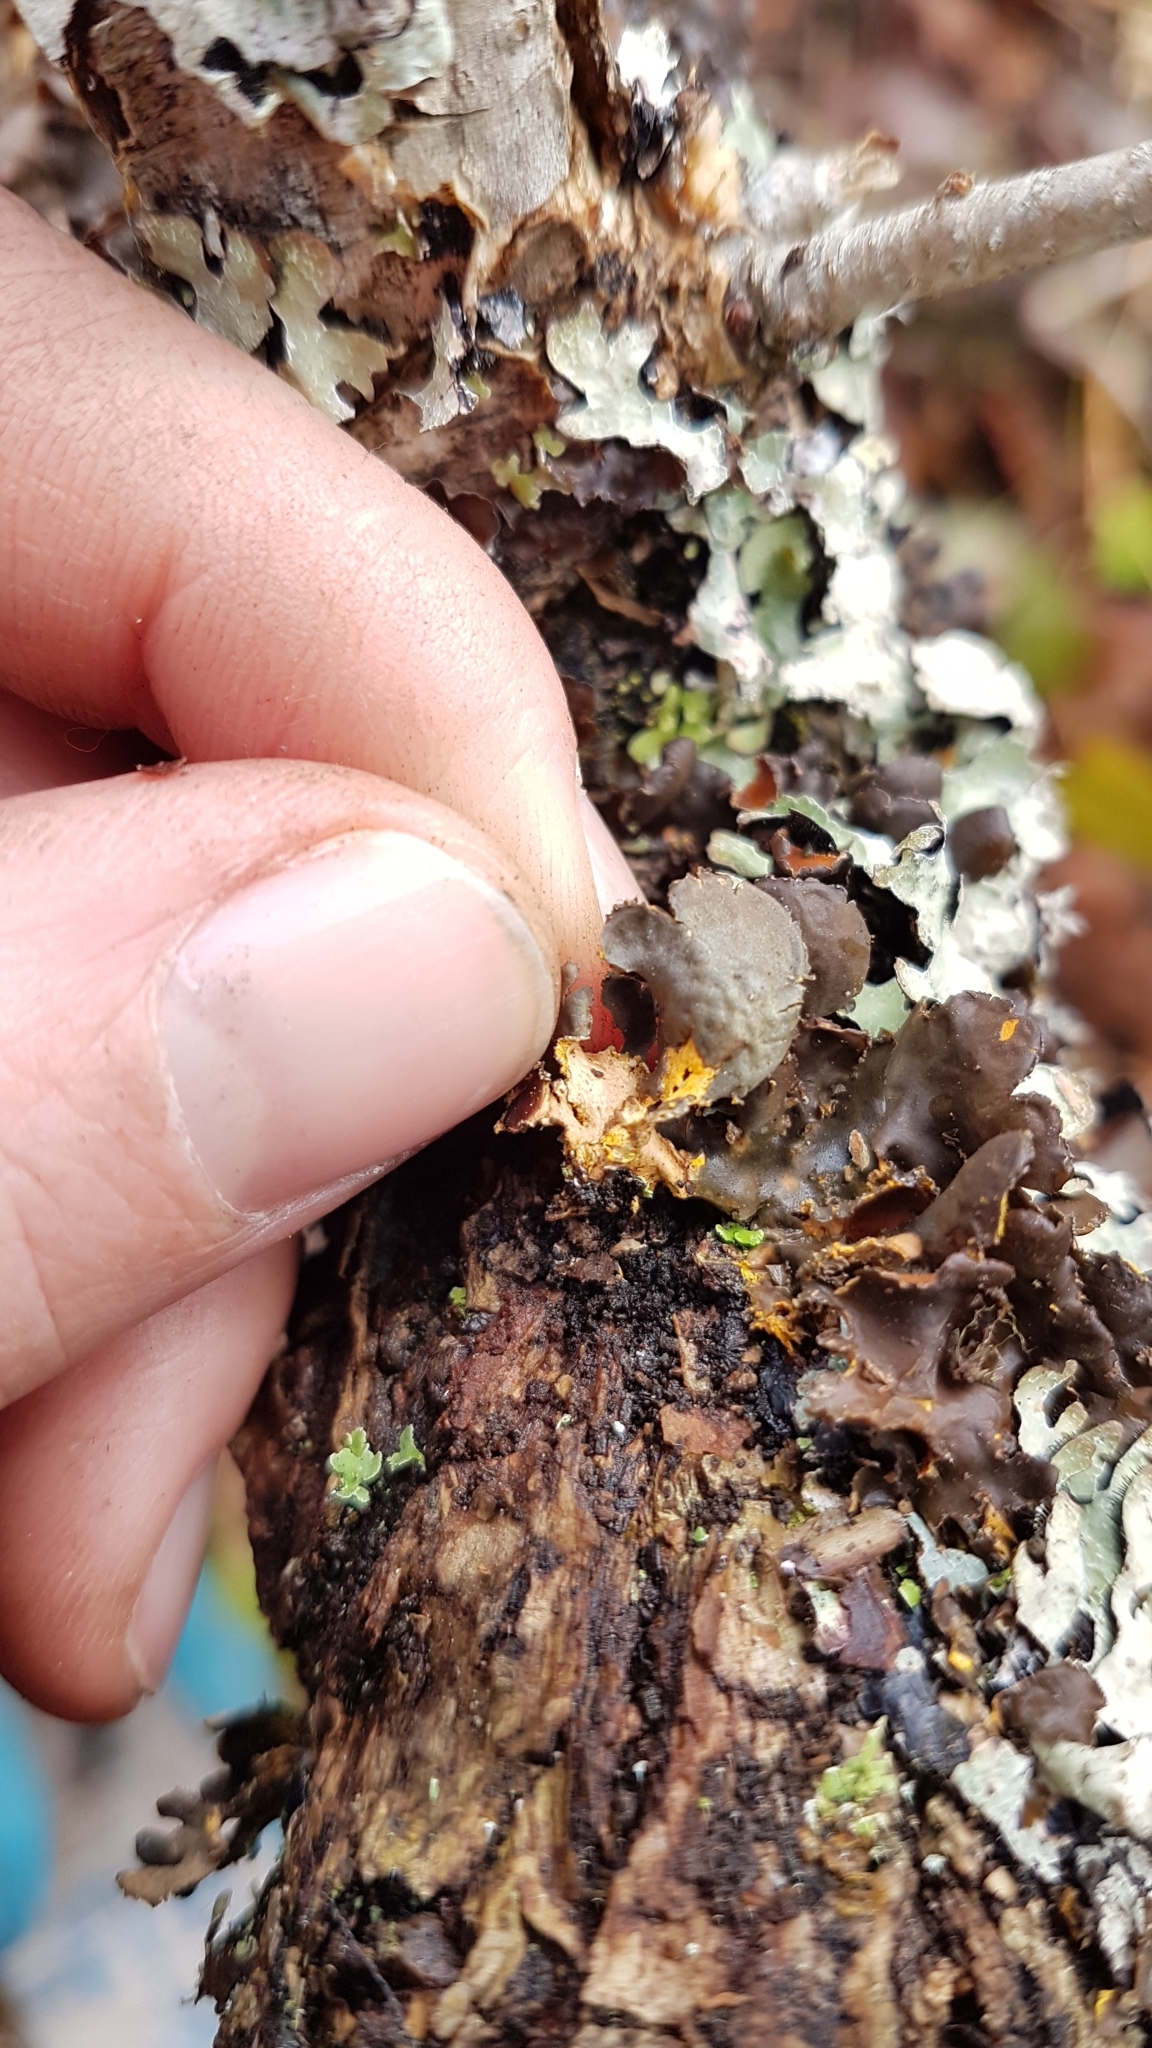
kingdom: Fungi
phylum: Ascomycota
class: Lecanoromycetes
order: Peltigerales
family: Nephromataceae
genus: Nephroma
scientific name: Nephroma laevigatum
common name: Mustard kidney lichen
